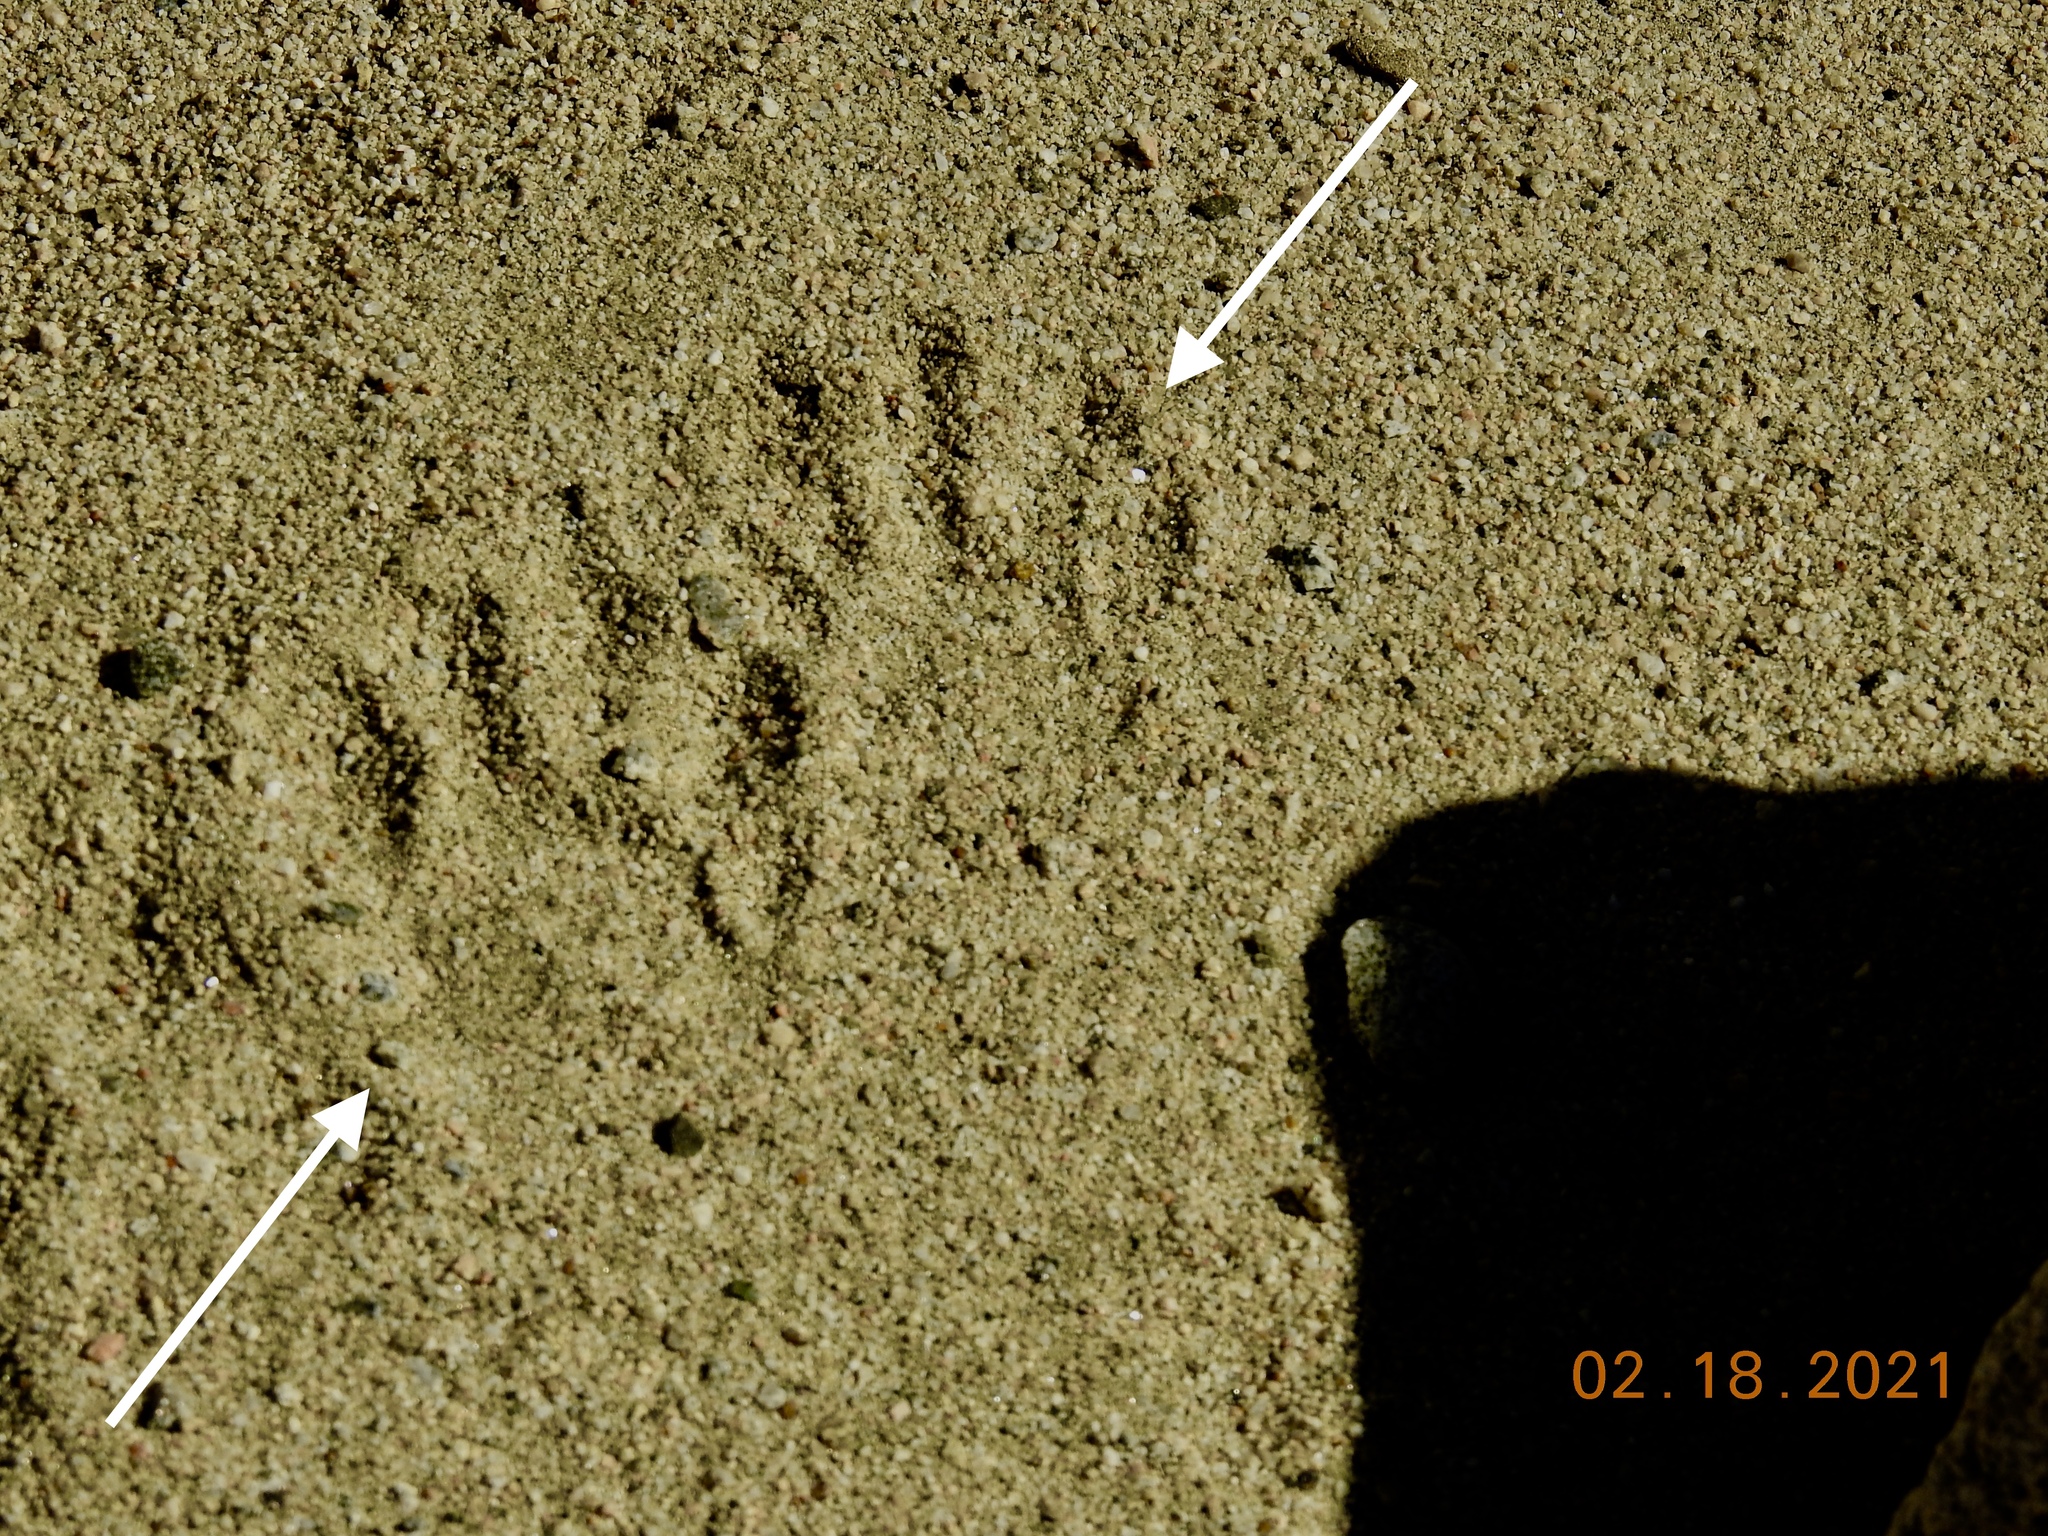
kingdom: Animalia
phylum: Chordata
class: Mammalia
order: Carnivora
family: Procyonidae
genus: Procyon
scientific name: Procyon lotor
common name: Raccoon
